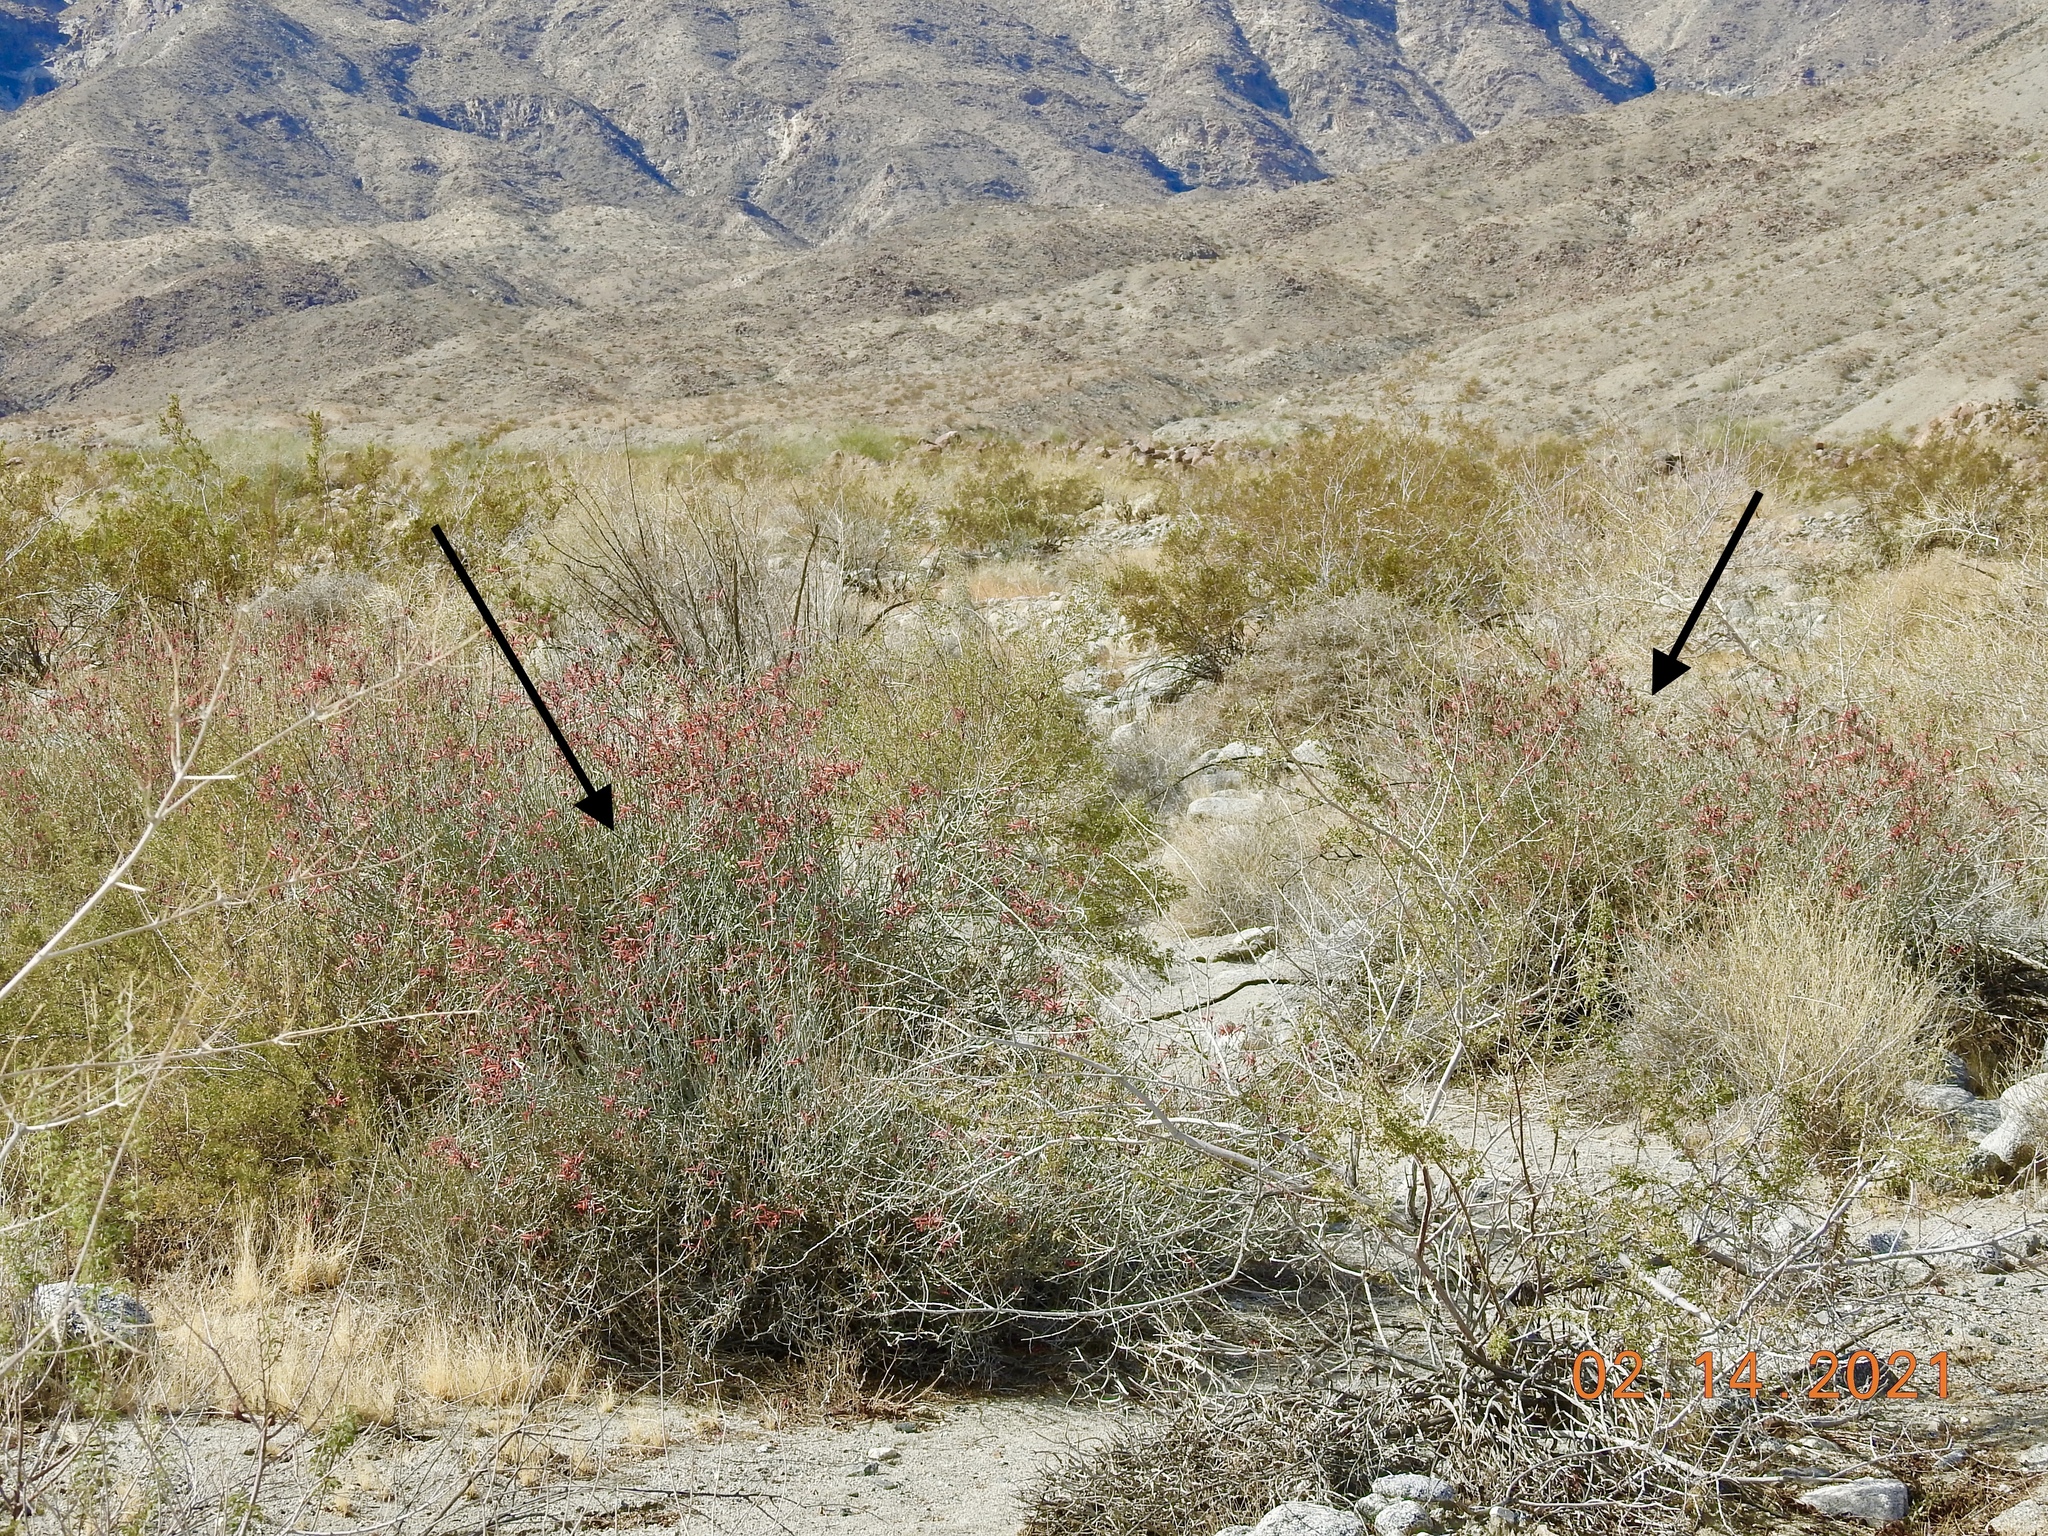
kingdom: Plantae
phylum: Tracheophyta
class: Magnoliopsida
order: Lamiales
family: Acanthaceae
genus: Justicia
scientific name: Justicia californica
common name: Chuparosa-honeysuckle
